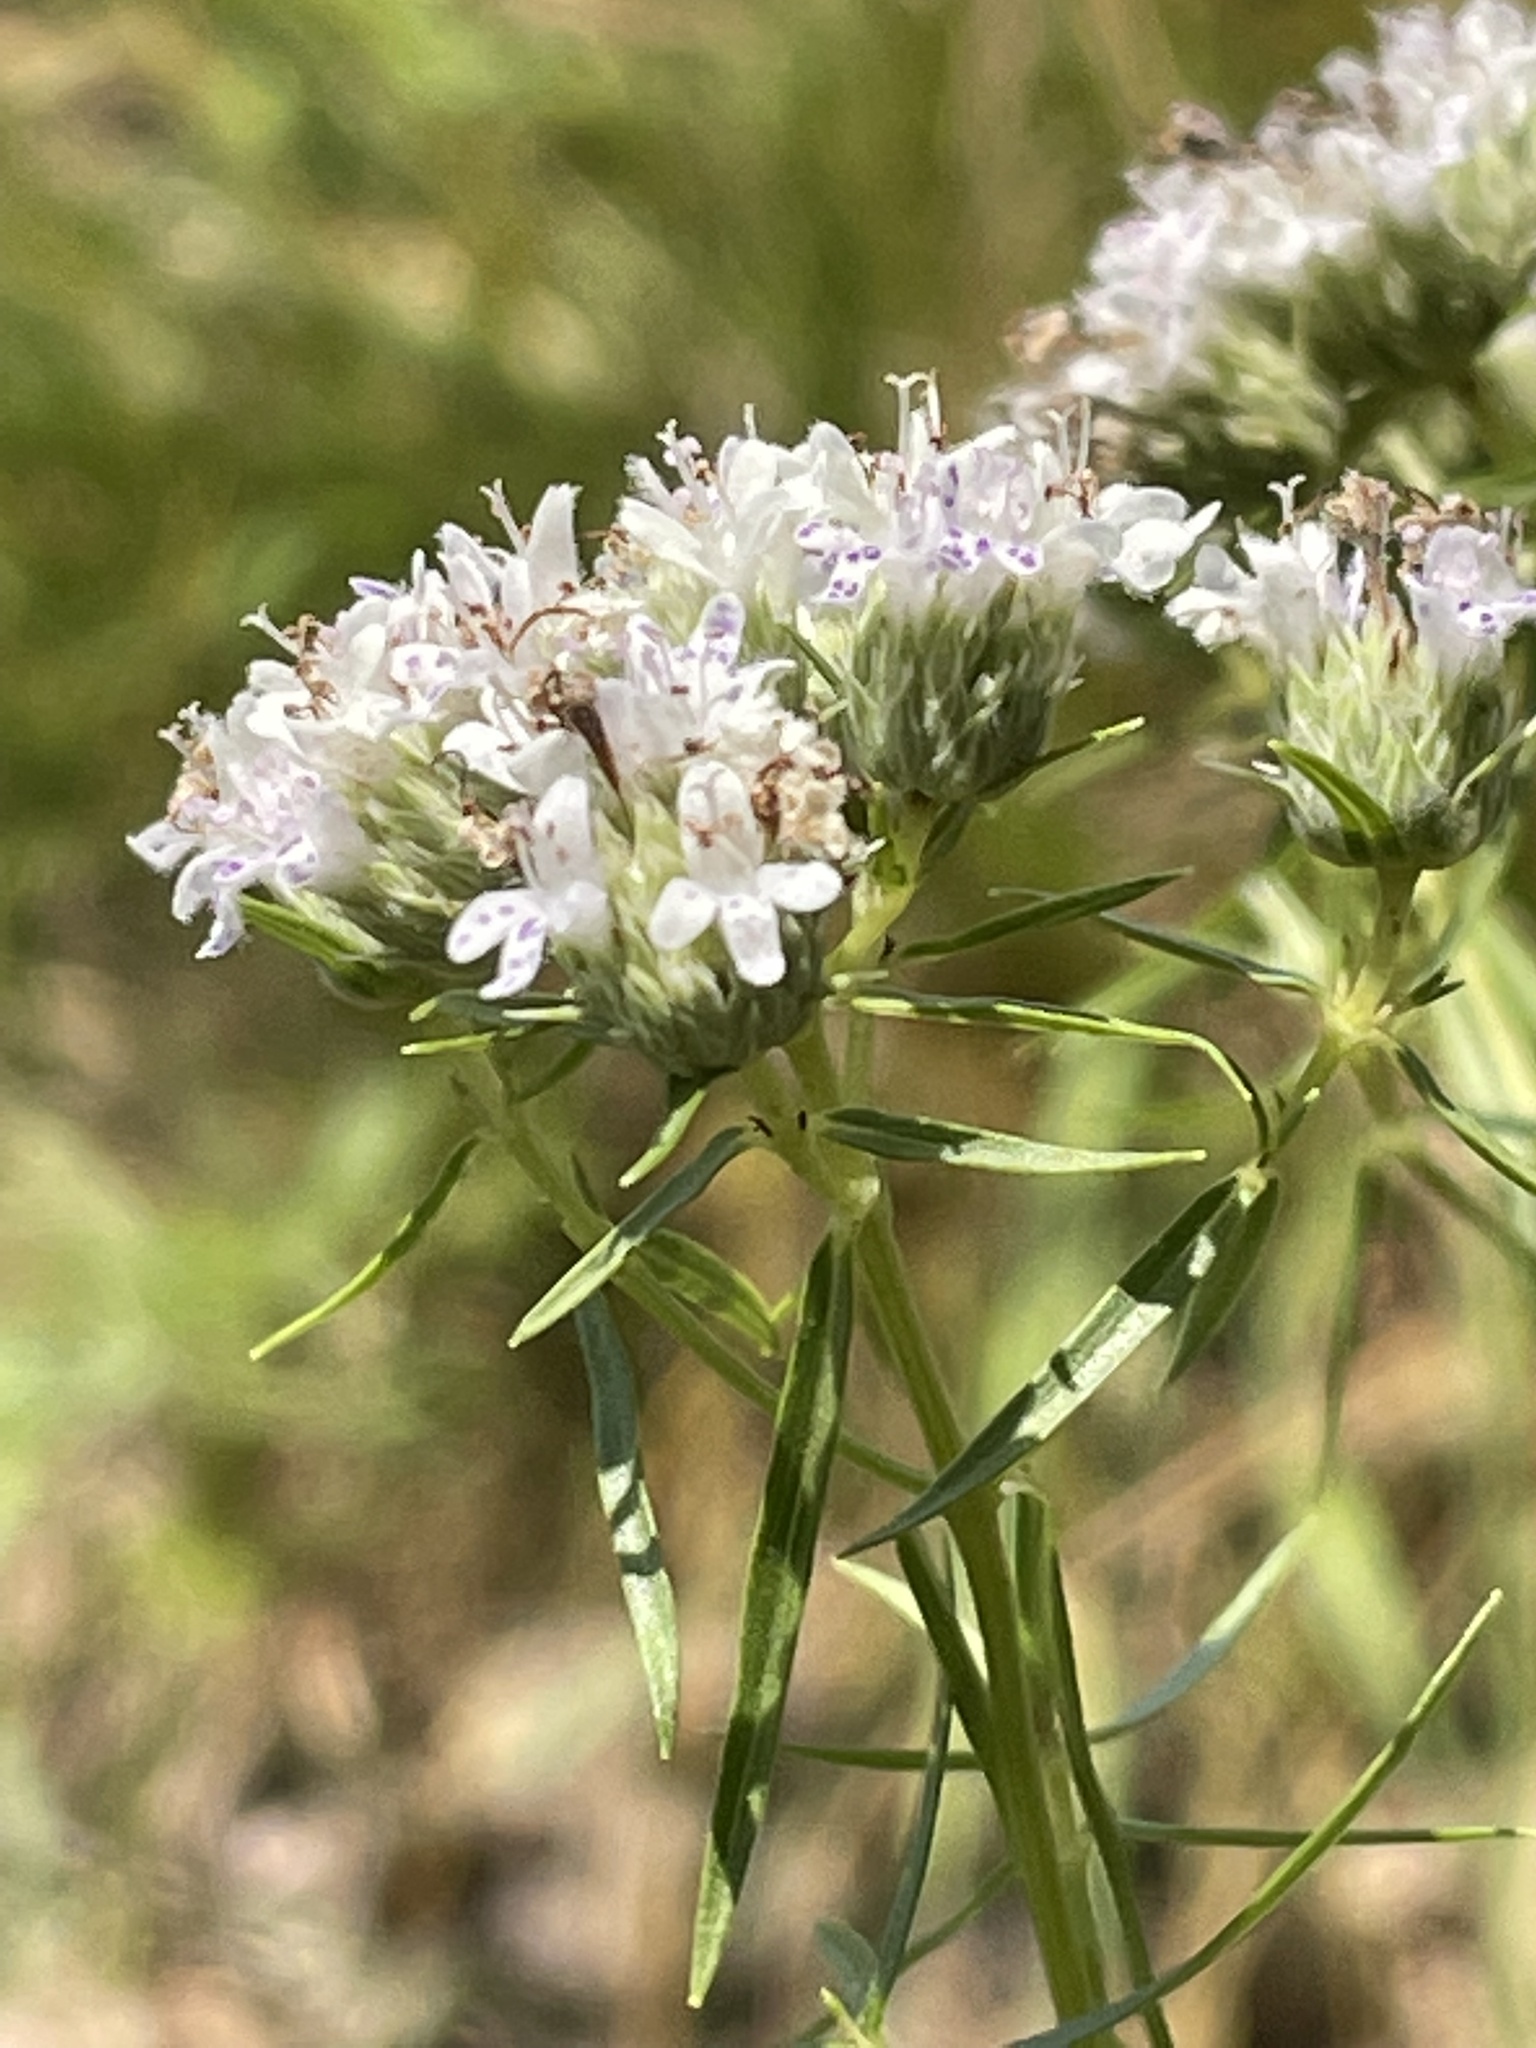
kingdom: Plantae
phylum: Tracheophyta
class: Magnoliopsida
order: Lamiales
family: Lamiaceae
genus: Pycnanthemum
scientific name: Pycnanthemum tenuifolium
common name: Narrow-leaf mountain-mint
